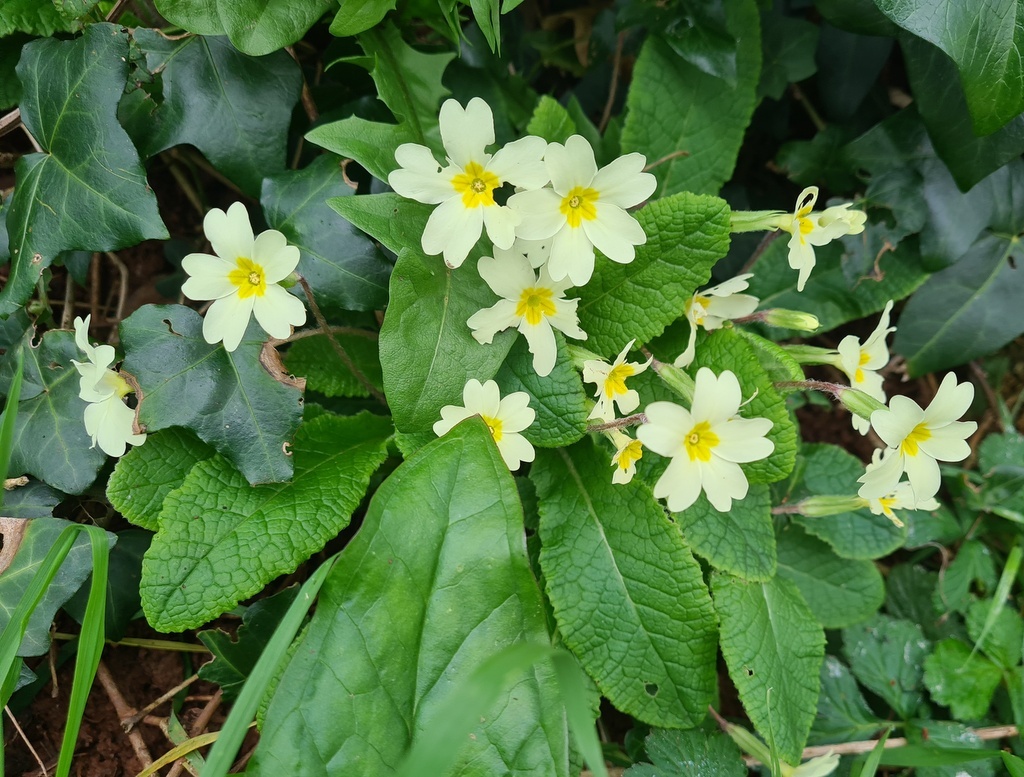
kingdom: Plantae
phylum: Tracheophyta
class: Magnoliopsida
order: Ericales
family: Primulaceae
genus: Primula
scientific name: Primula vulgaris
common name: Primrose
